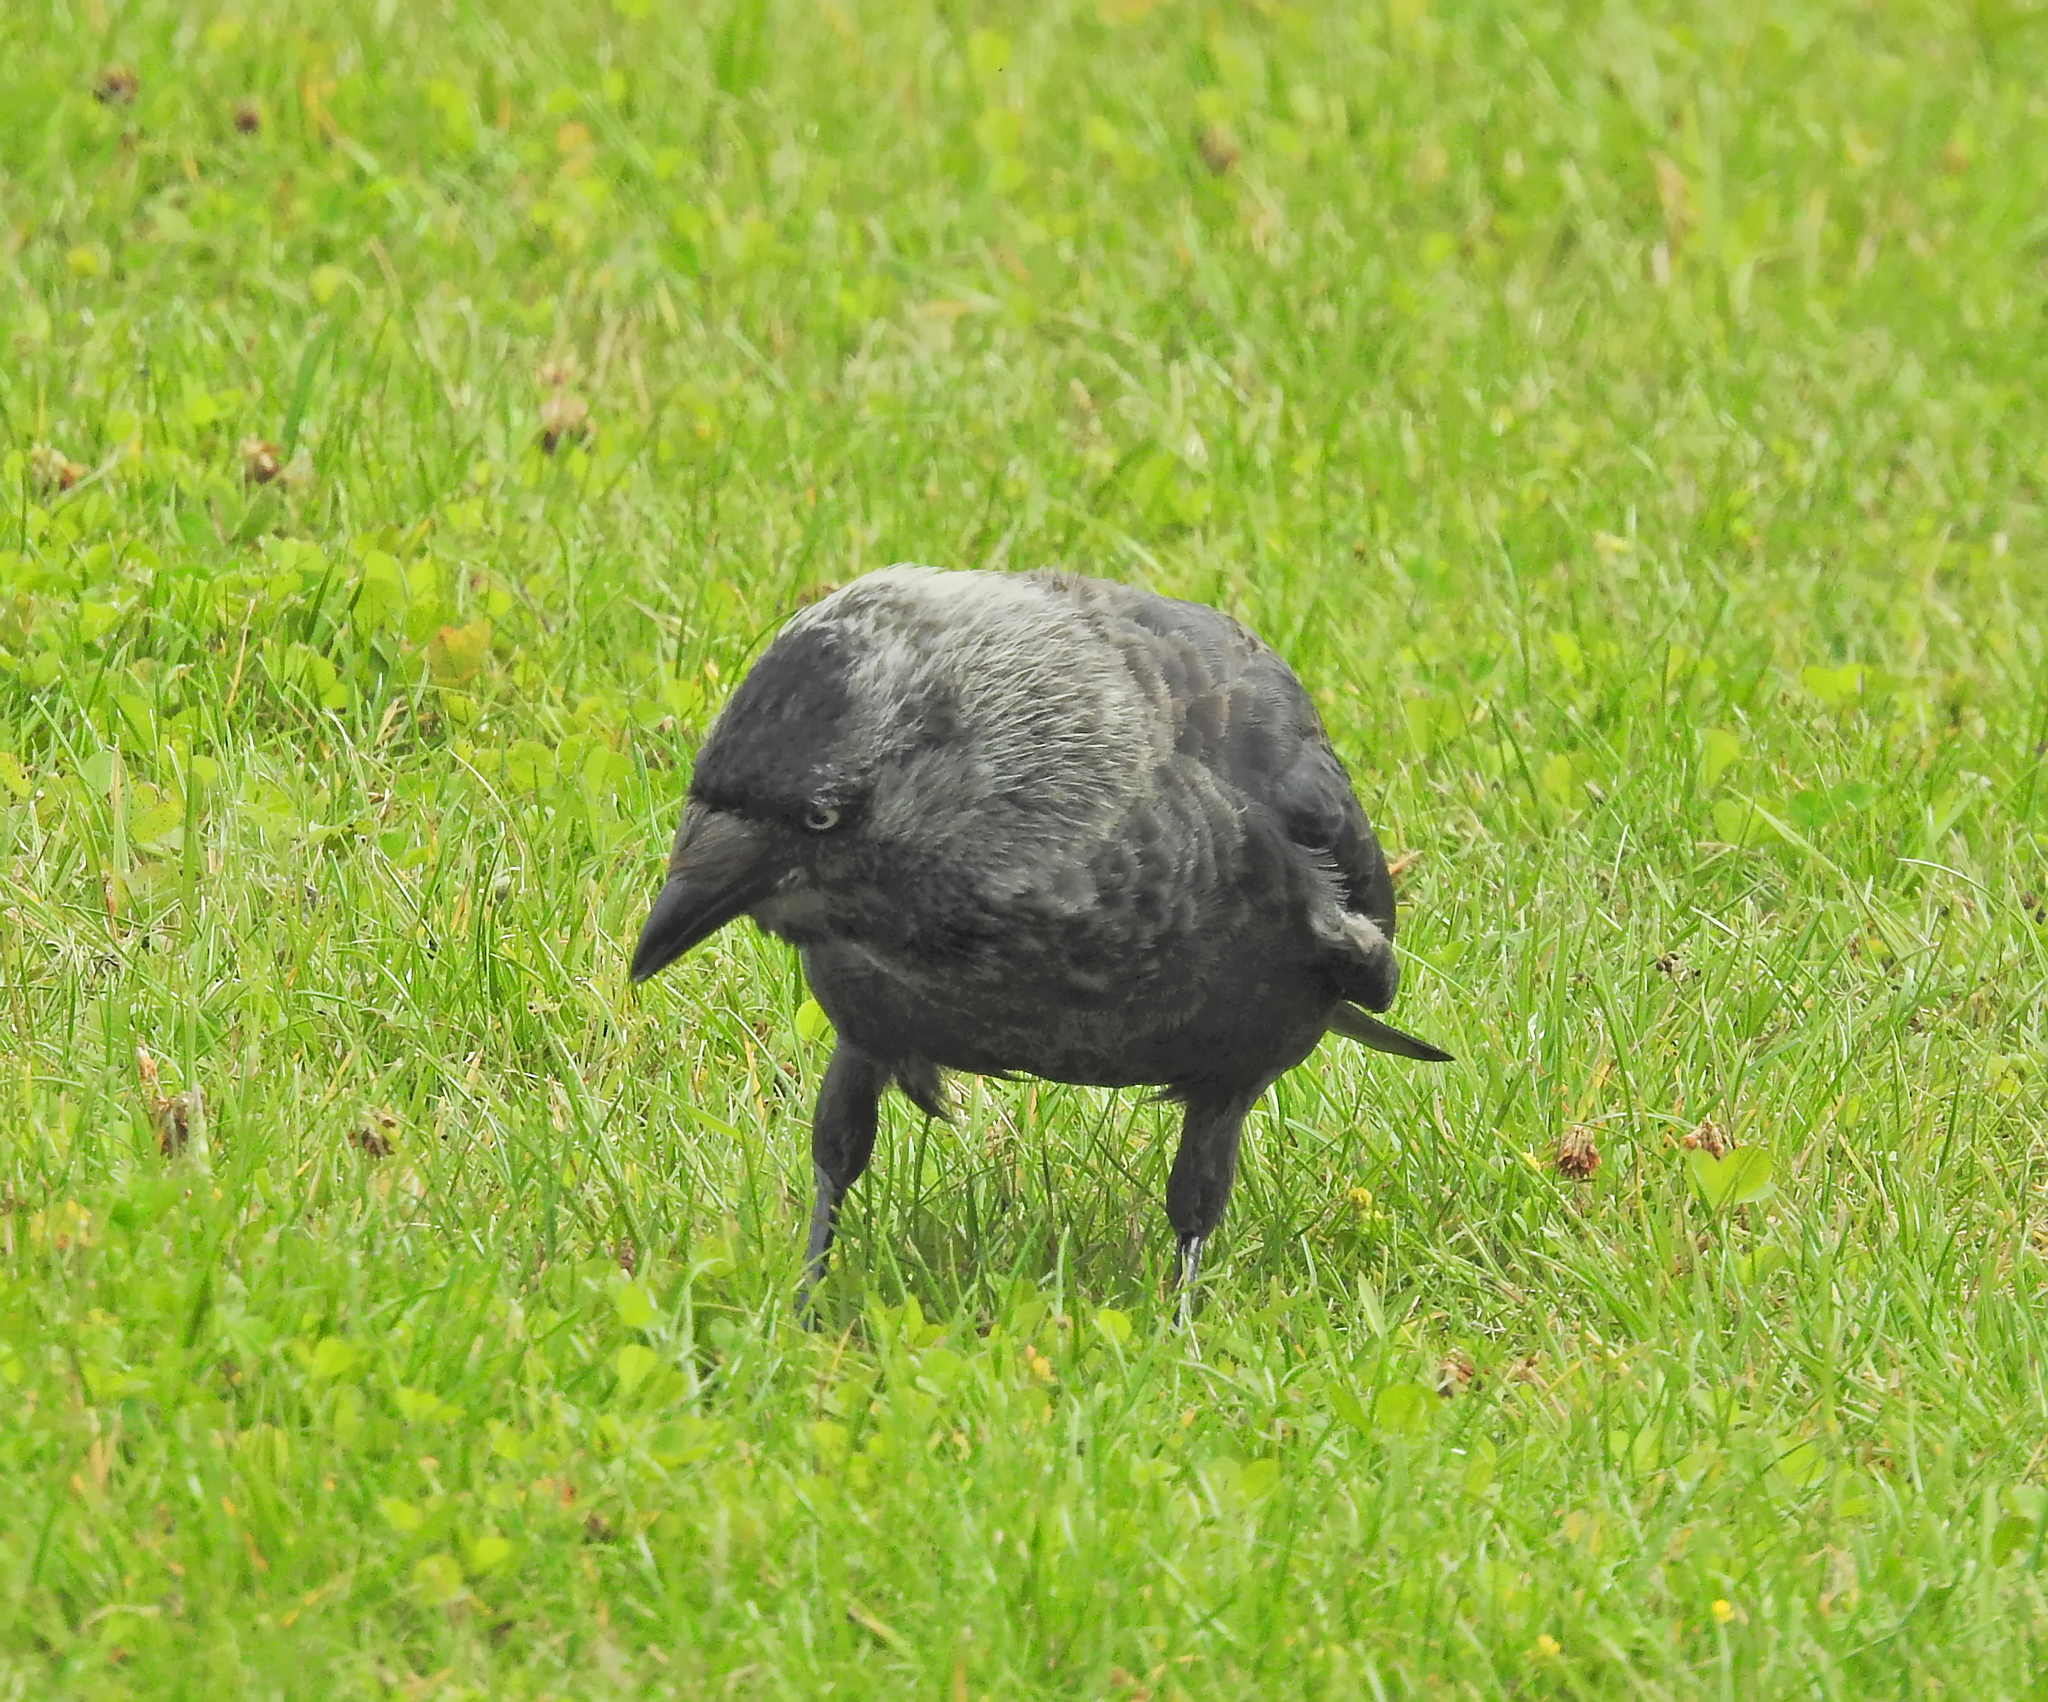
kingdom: Animalia
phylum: Chordata
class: Aves
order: Passeriformes
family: Corvidae
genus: Coloeus
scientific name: Coloeus monedula
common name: Western jackdaw
